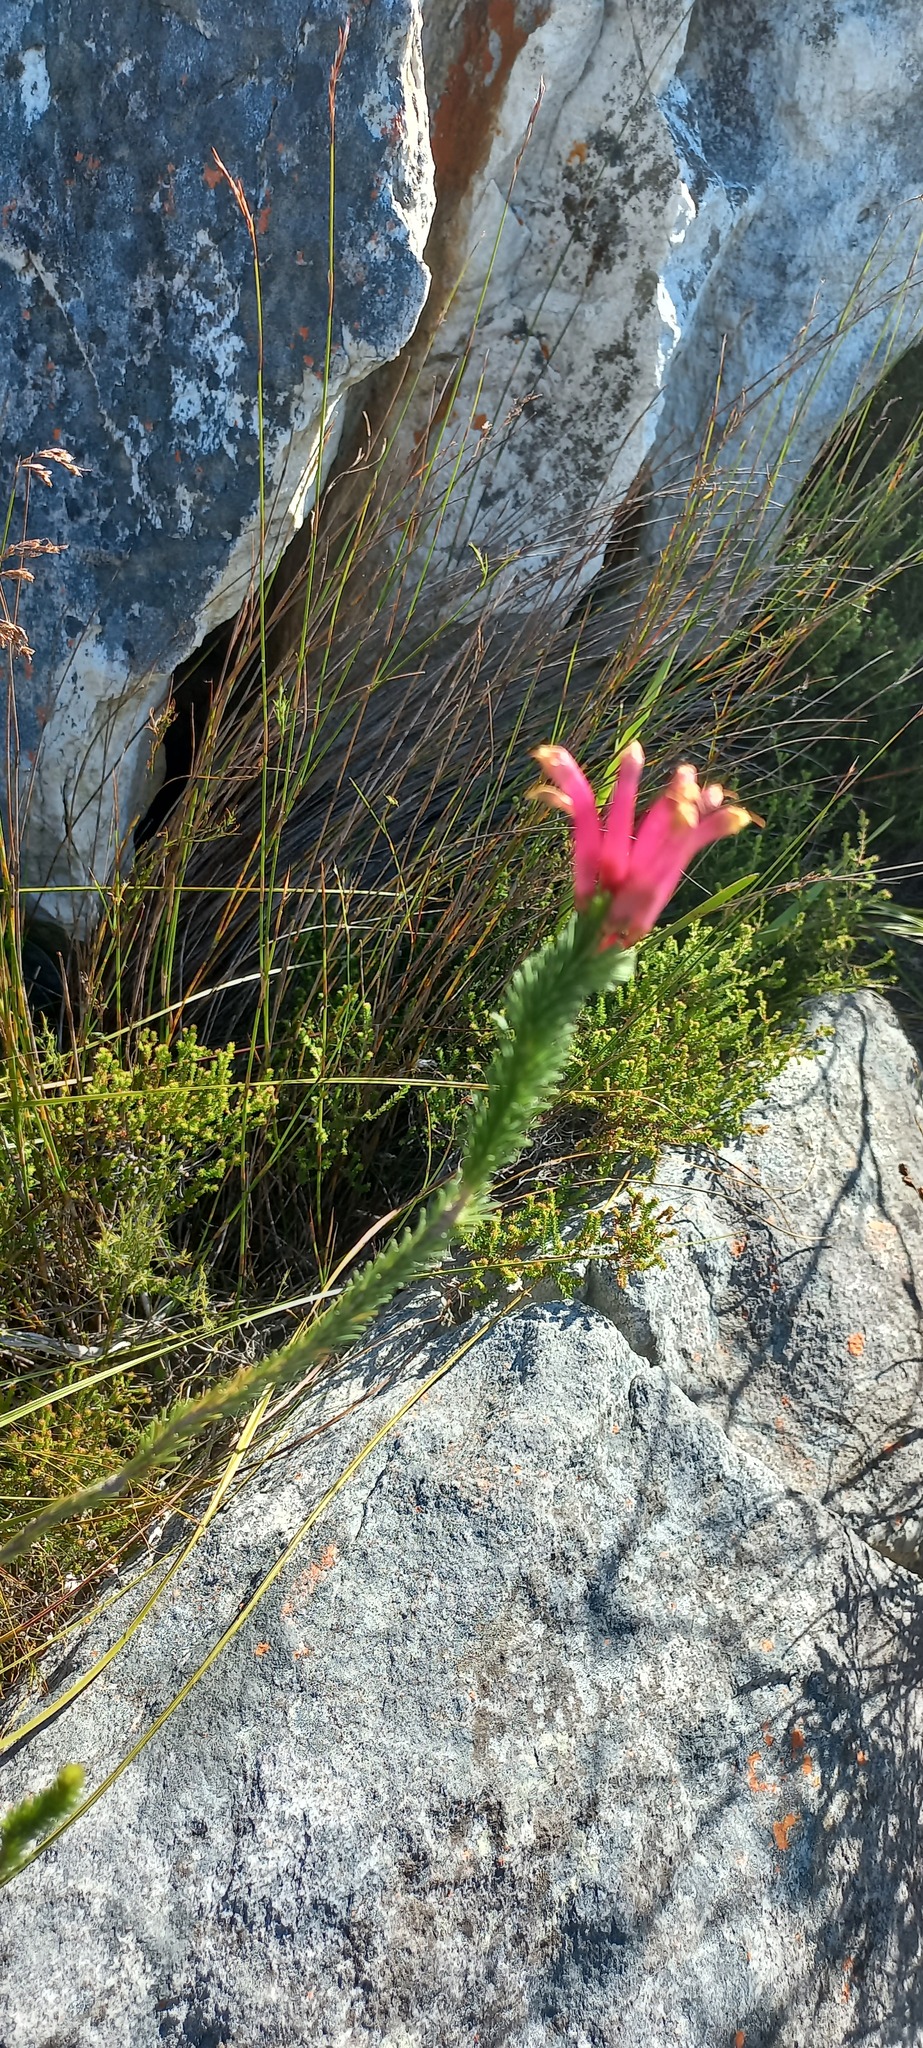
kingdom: Plantae
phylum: Tracheophyta
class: Magnoliopsida
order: Ericales
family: Ericaceae
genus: Erica
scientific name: Erica fascicularis
